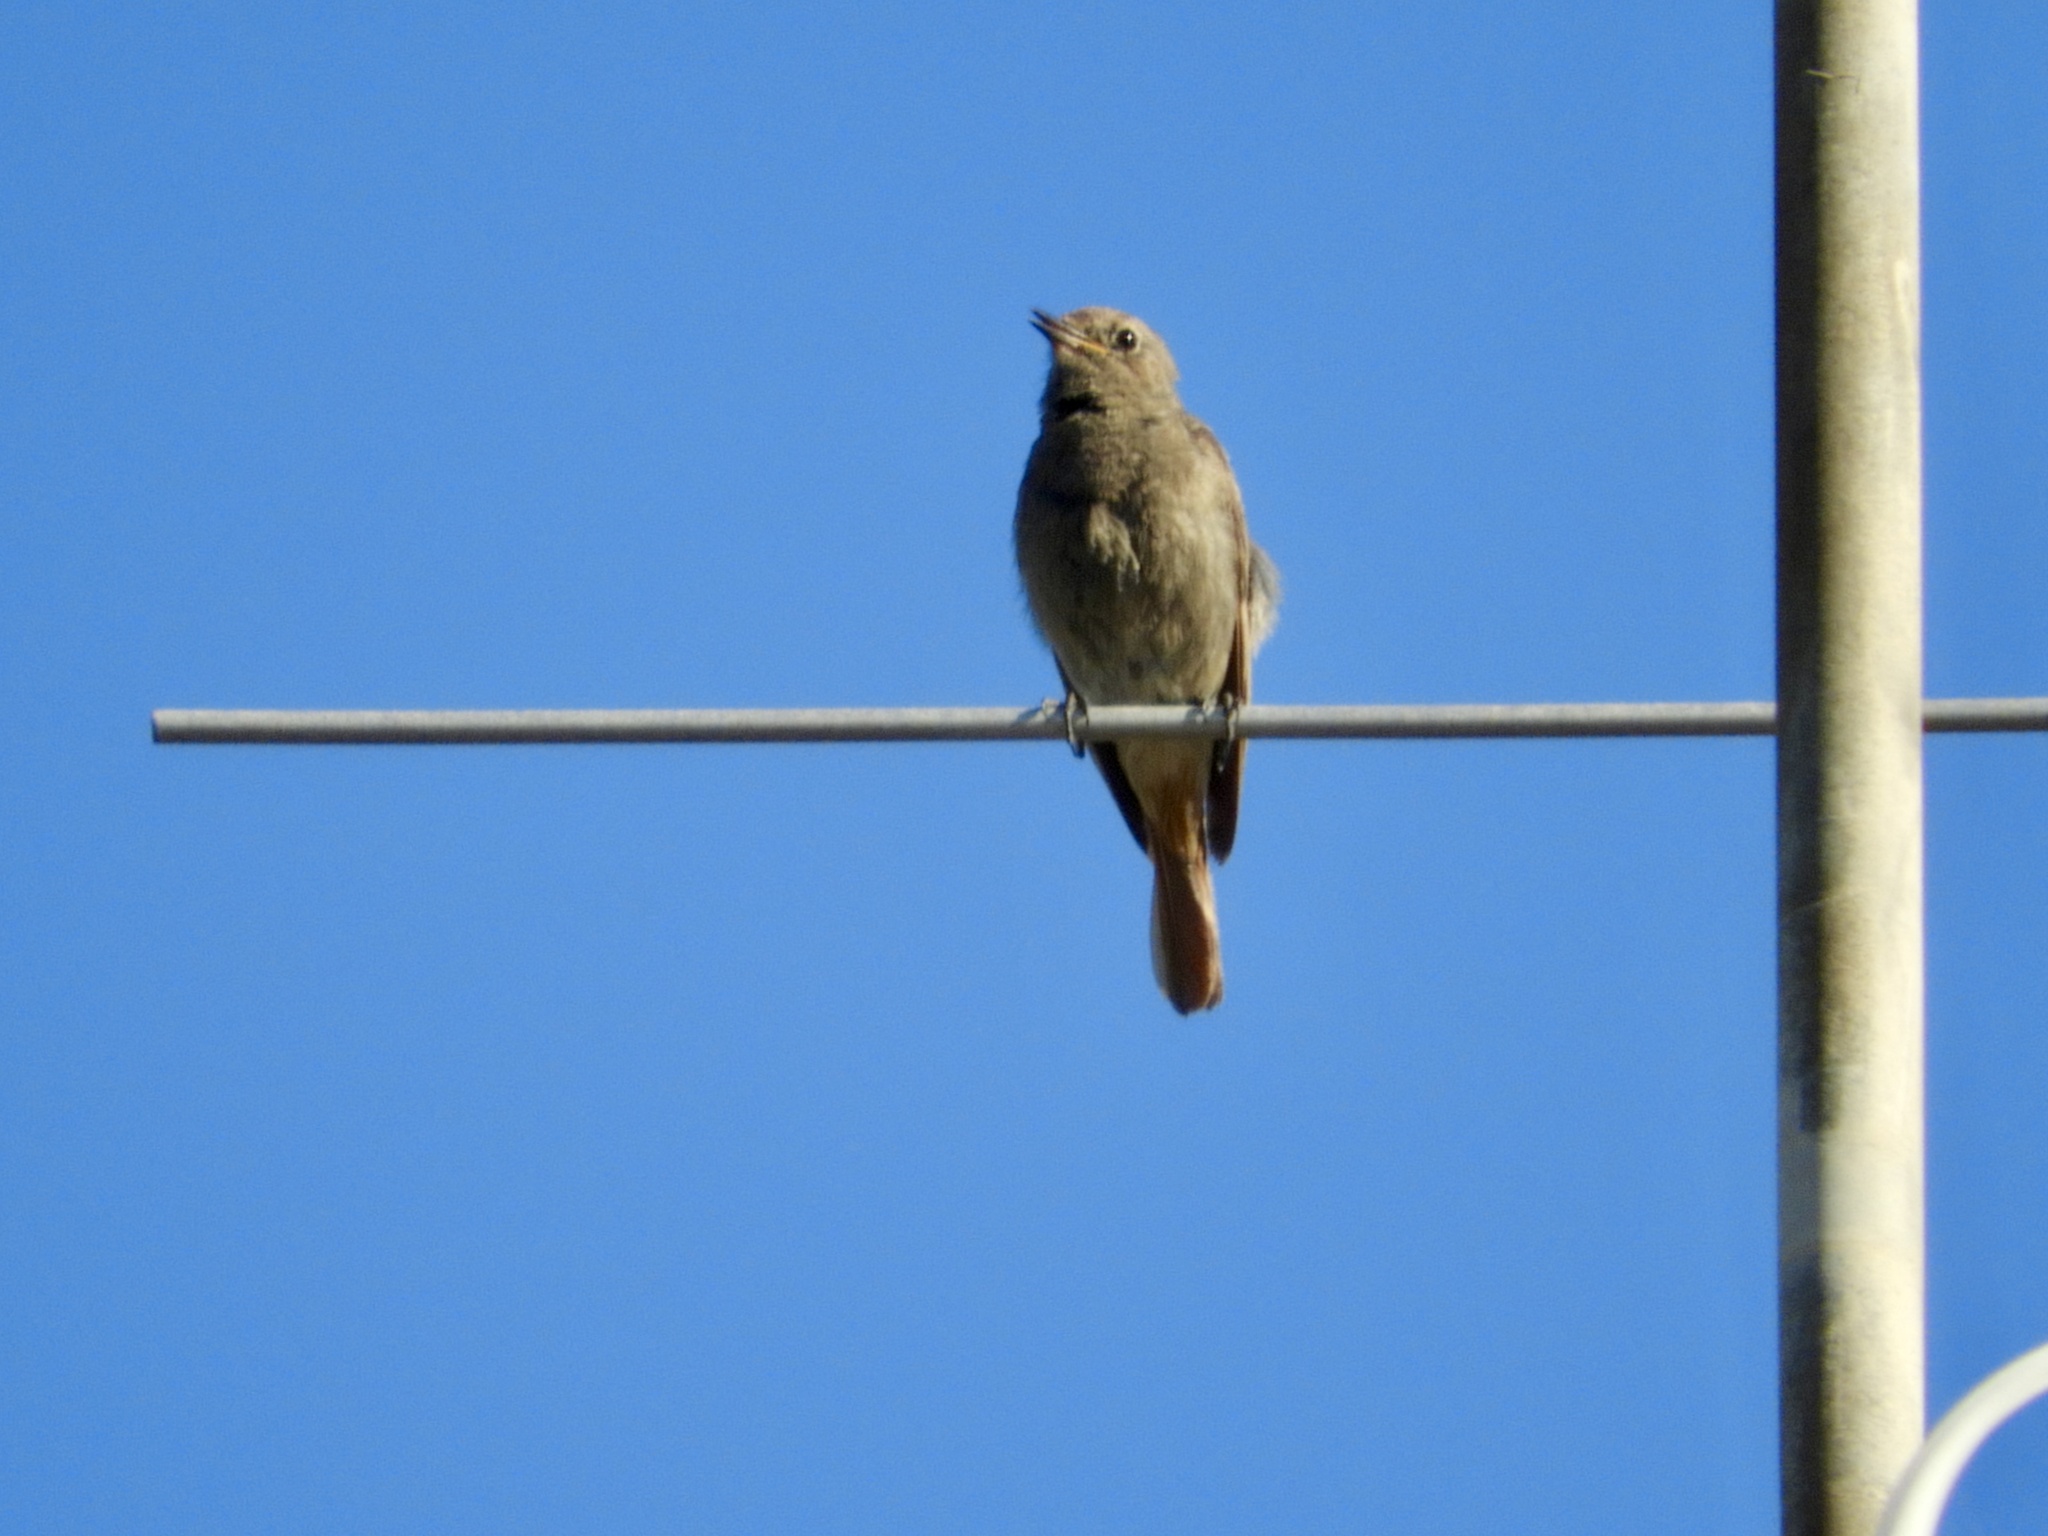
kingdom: Animalia
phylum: Chordata
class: Aves
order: Passeriformes
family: Muscicapidae
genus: Phoenicurus
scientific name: Phoenicurus ochruros
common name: Black redstart
